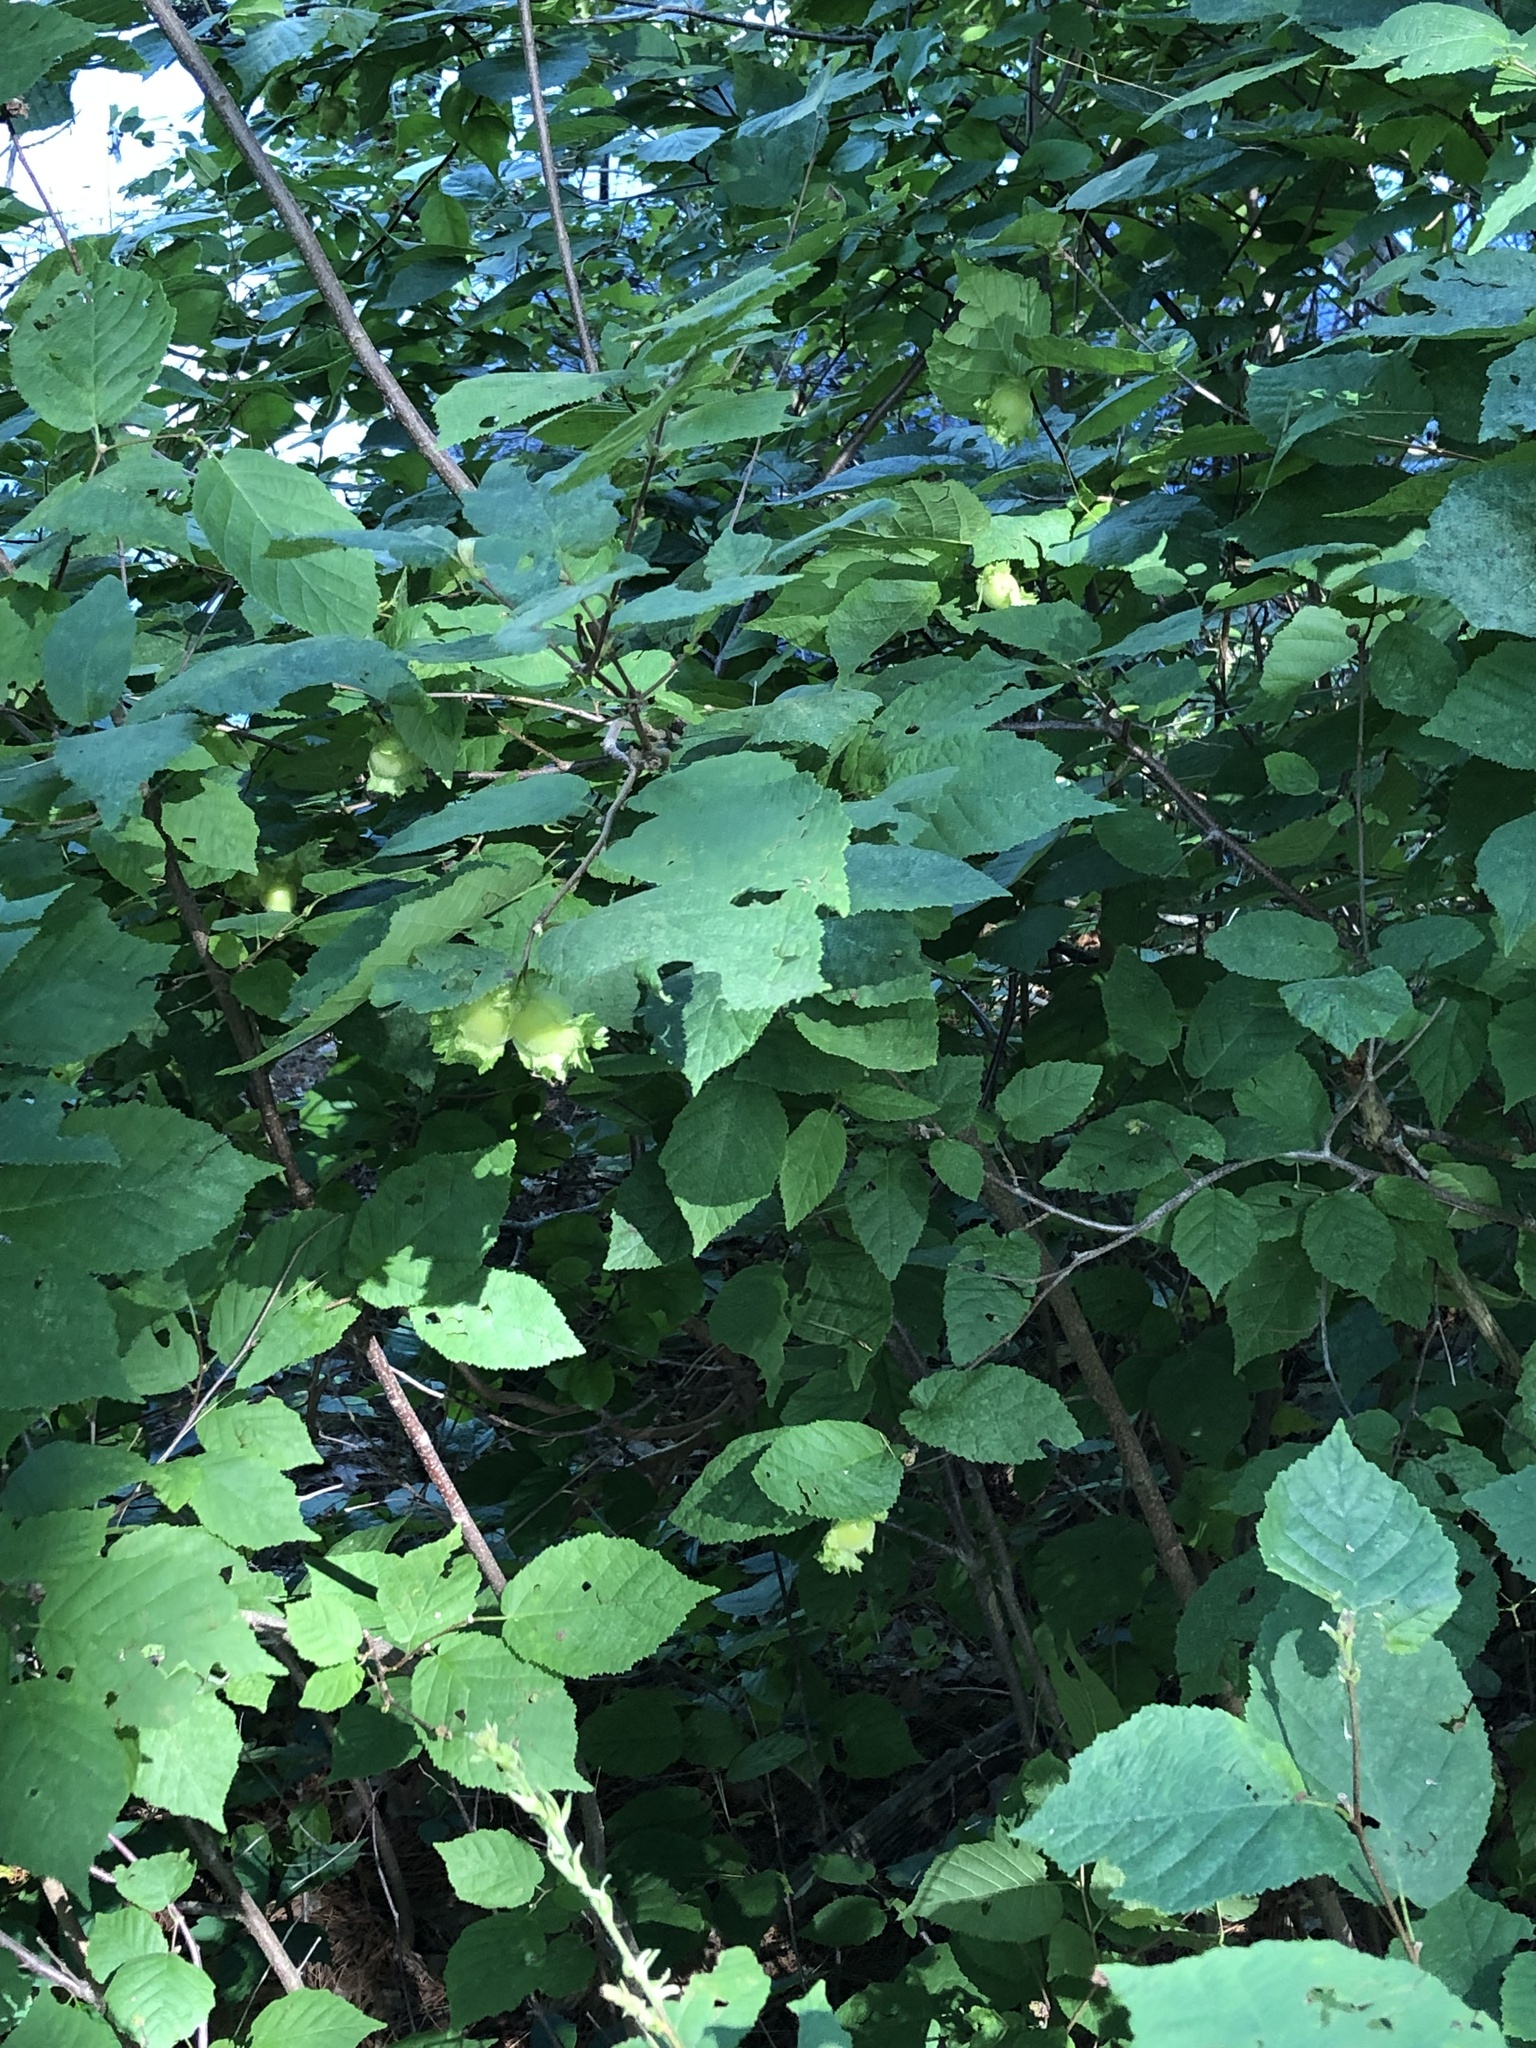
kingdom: Plantae
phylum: Tracheophyta
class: Magnoliopsida
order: Fagales
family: Betulaceae
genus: Corylus
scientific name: Corylus americana
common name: American hazel
